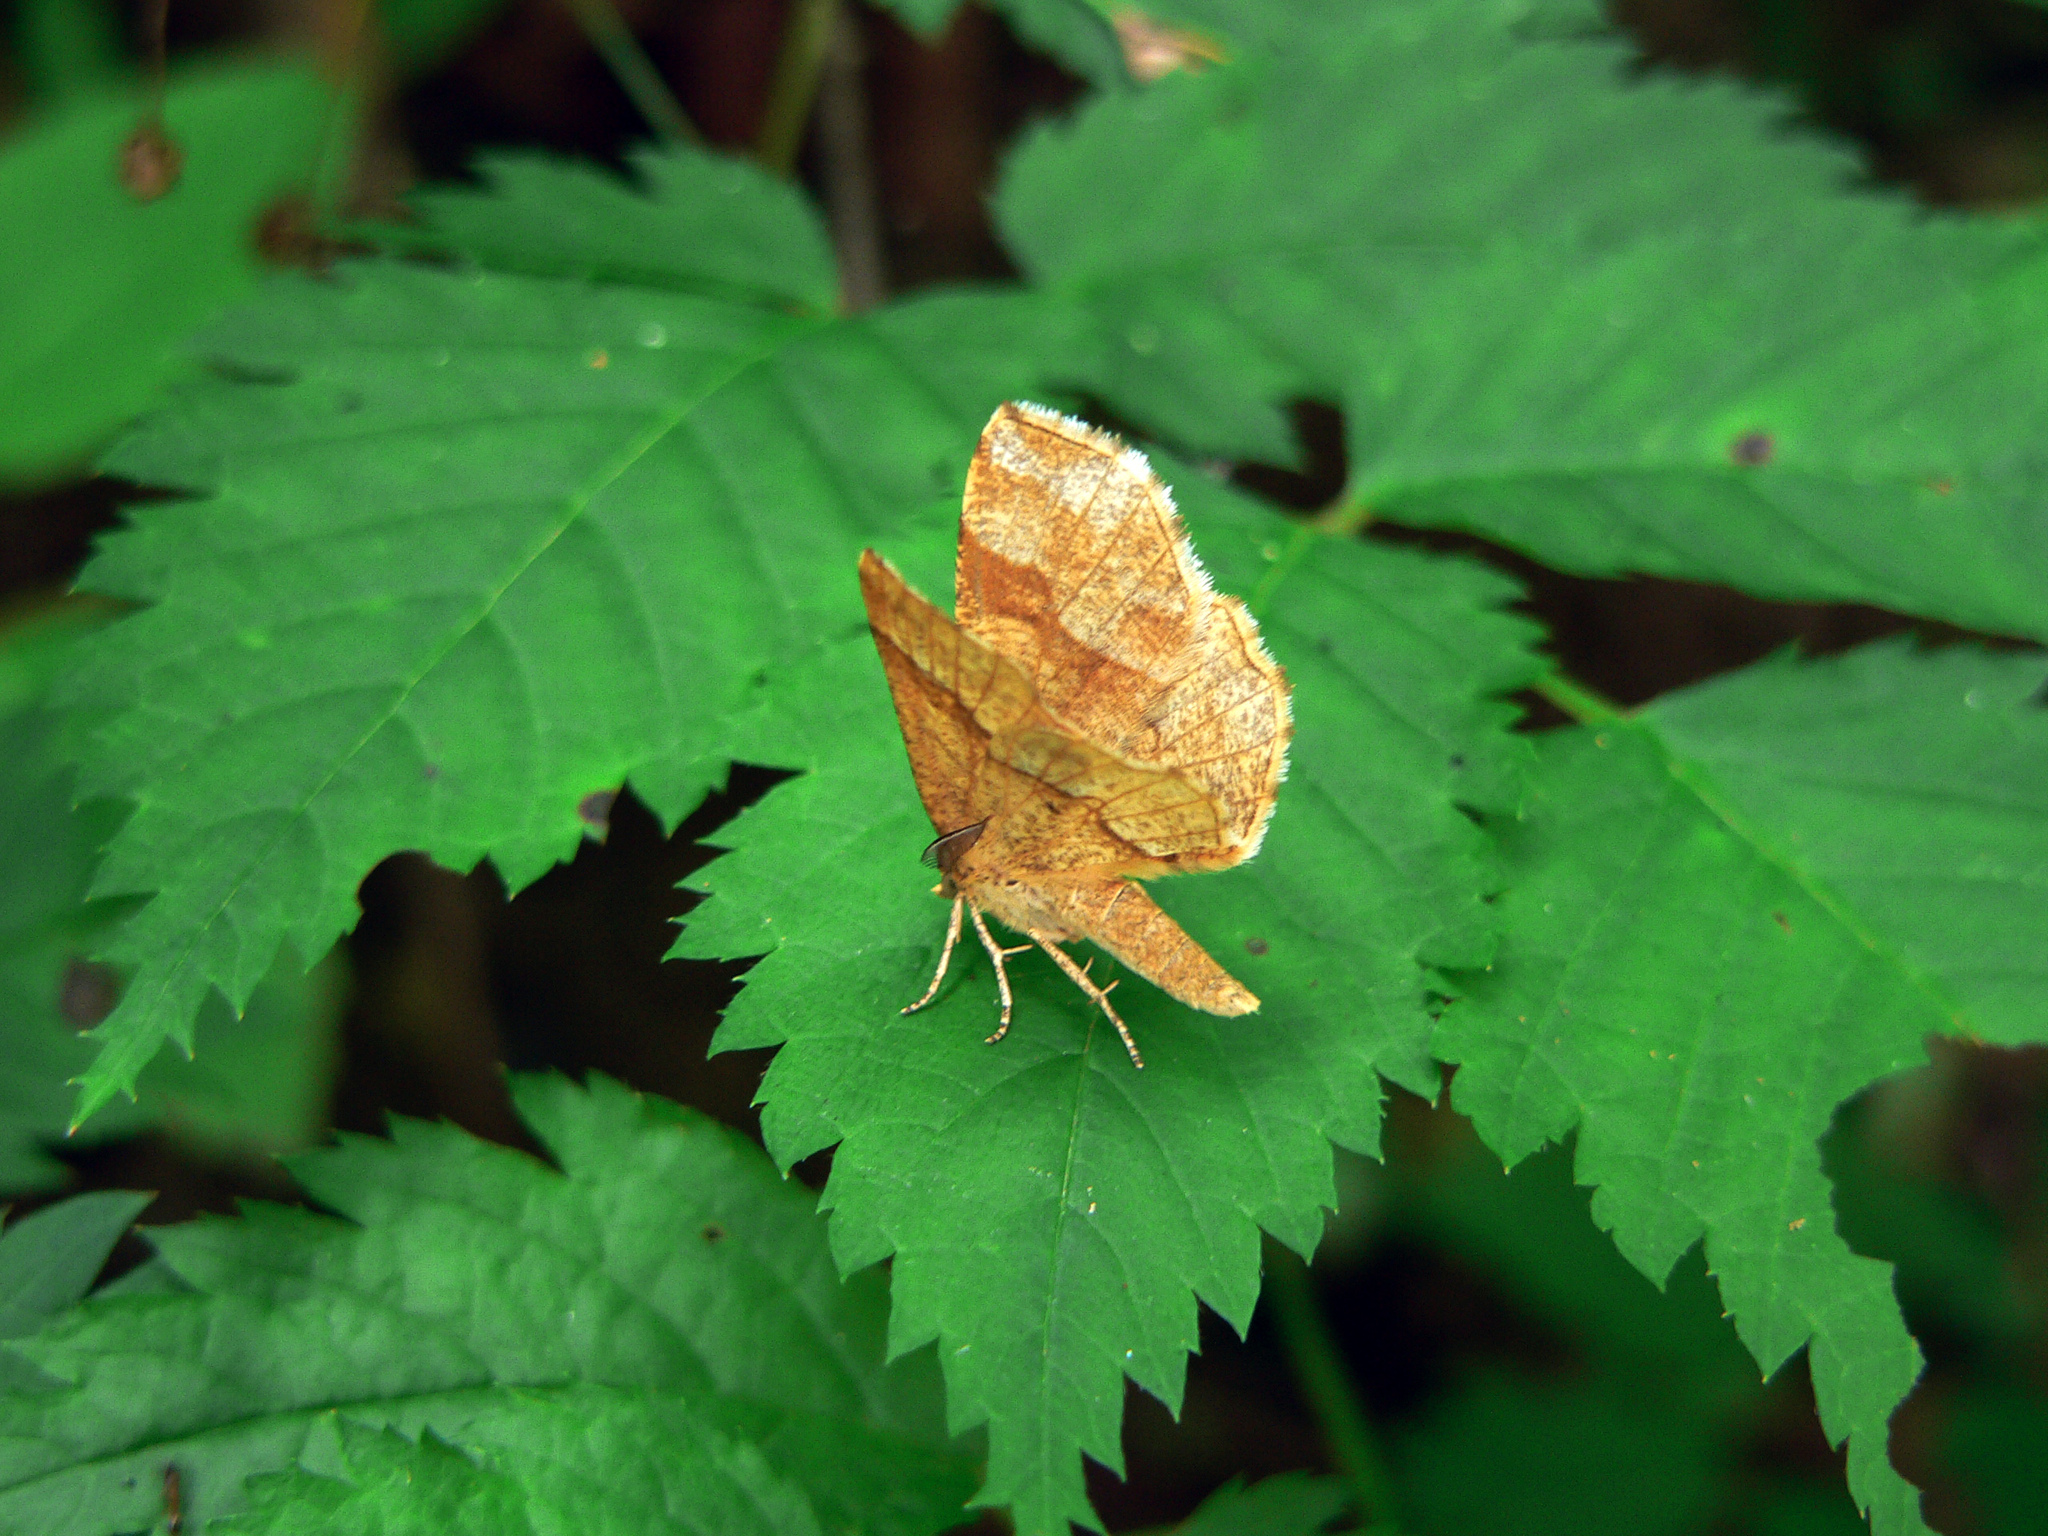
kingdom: Animalia
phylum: Arthropoda
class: Insecta
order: Lepidoptera
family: Geometridae
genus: Cepphis
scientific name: Cepphis advenaria
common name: Little thorn
